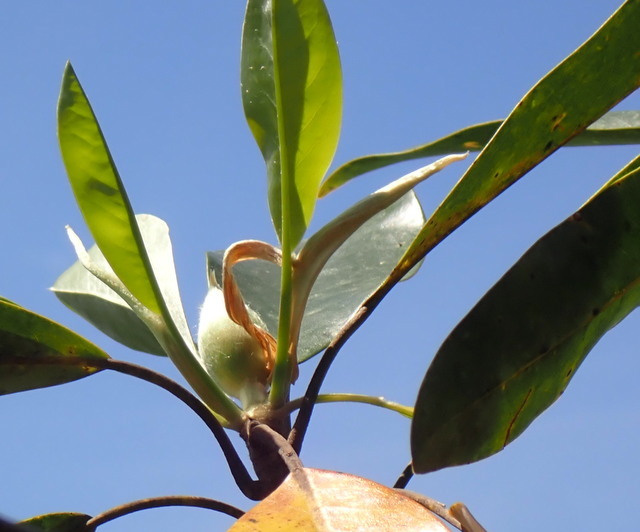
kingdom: Plantae
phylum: Tracheophyta
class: Magnoliopsida
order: Magnoliales
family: Magnoliaceae
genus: Magnolia
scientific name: Magnolia virginiana
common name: Swamp bay
